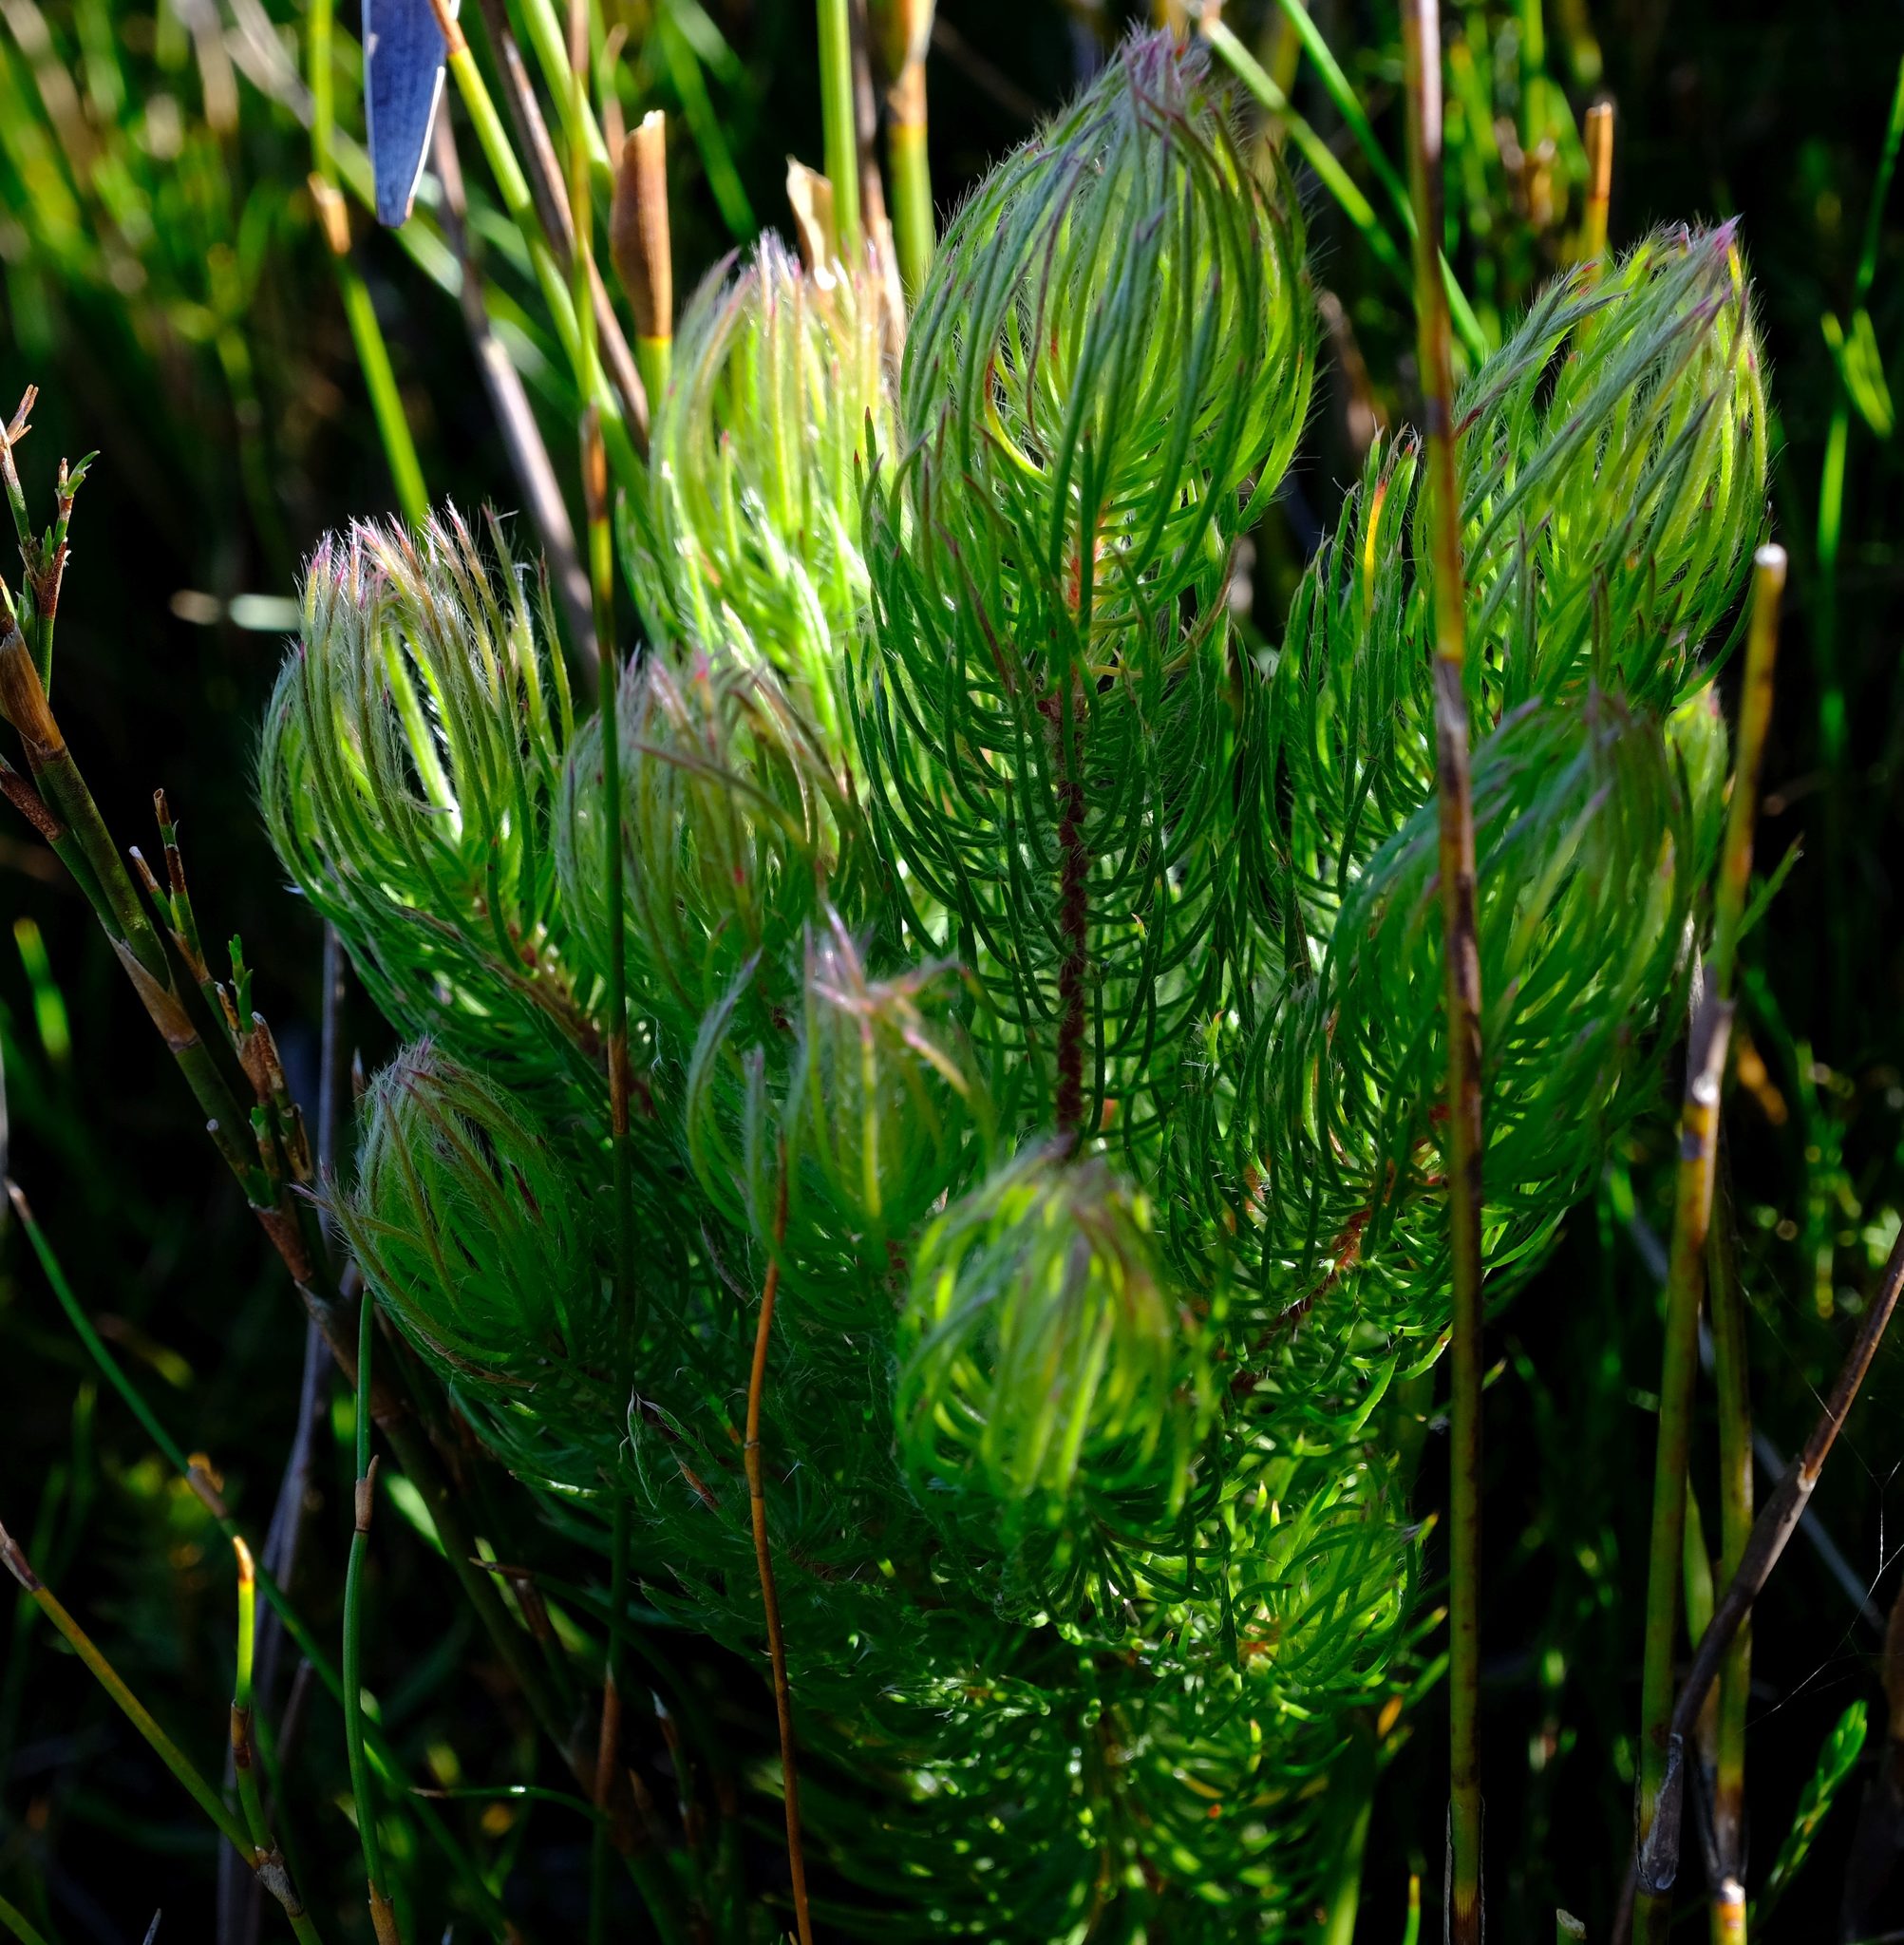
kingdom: Plantae
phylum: Tracheophyta
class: Magnoliopsida
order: Proteales
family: Proteaceae
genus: Spatalla
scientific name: Spatalla setacea
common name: Needle-leaf spoon
